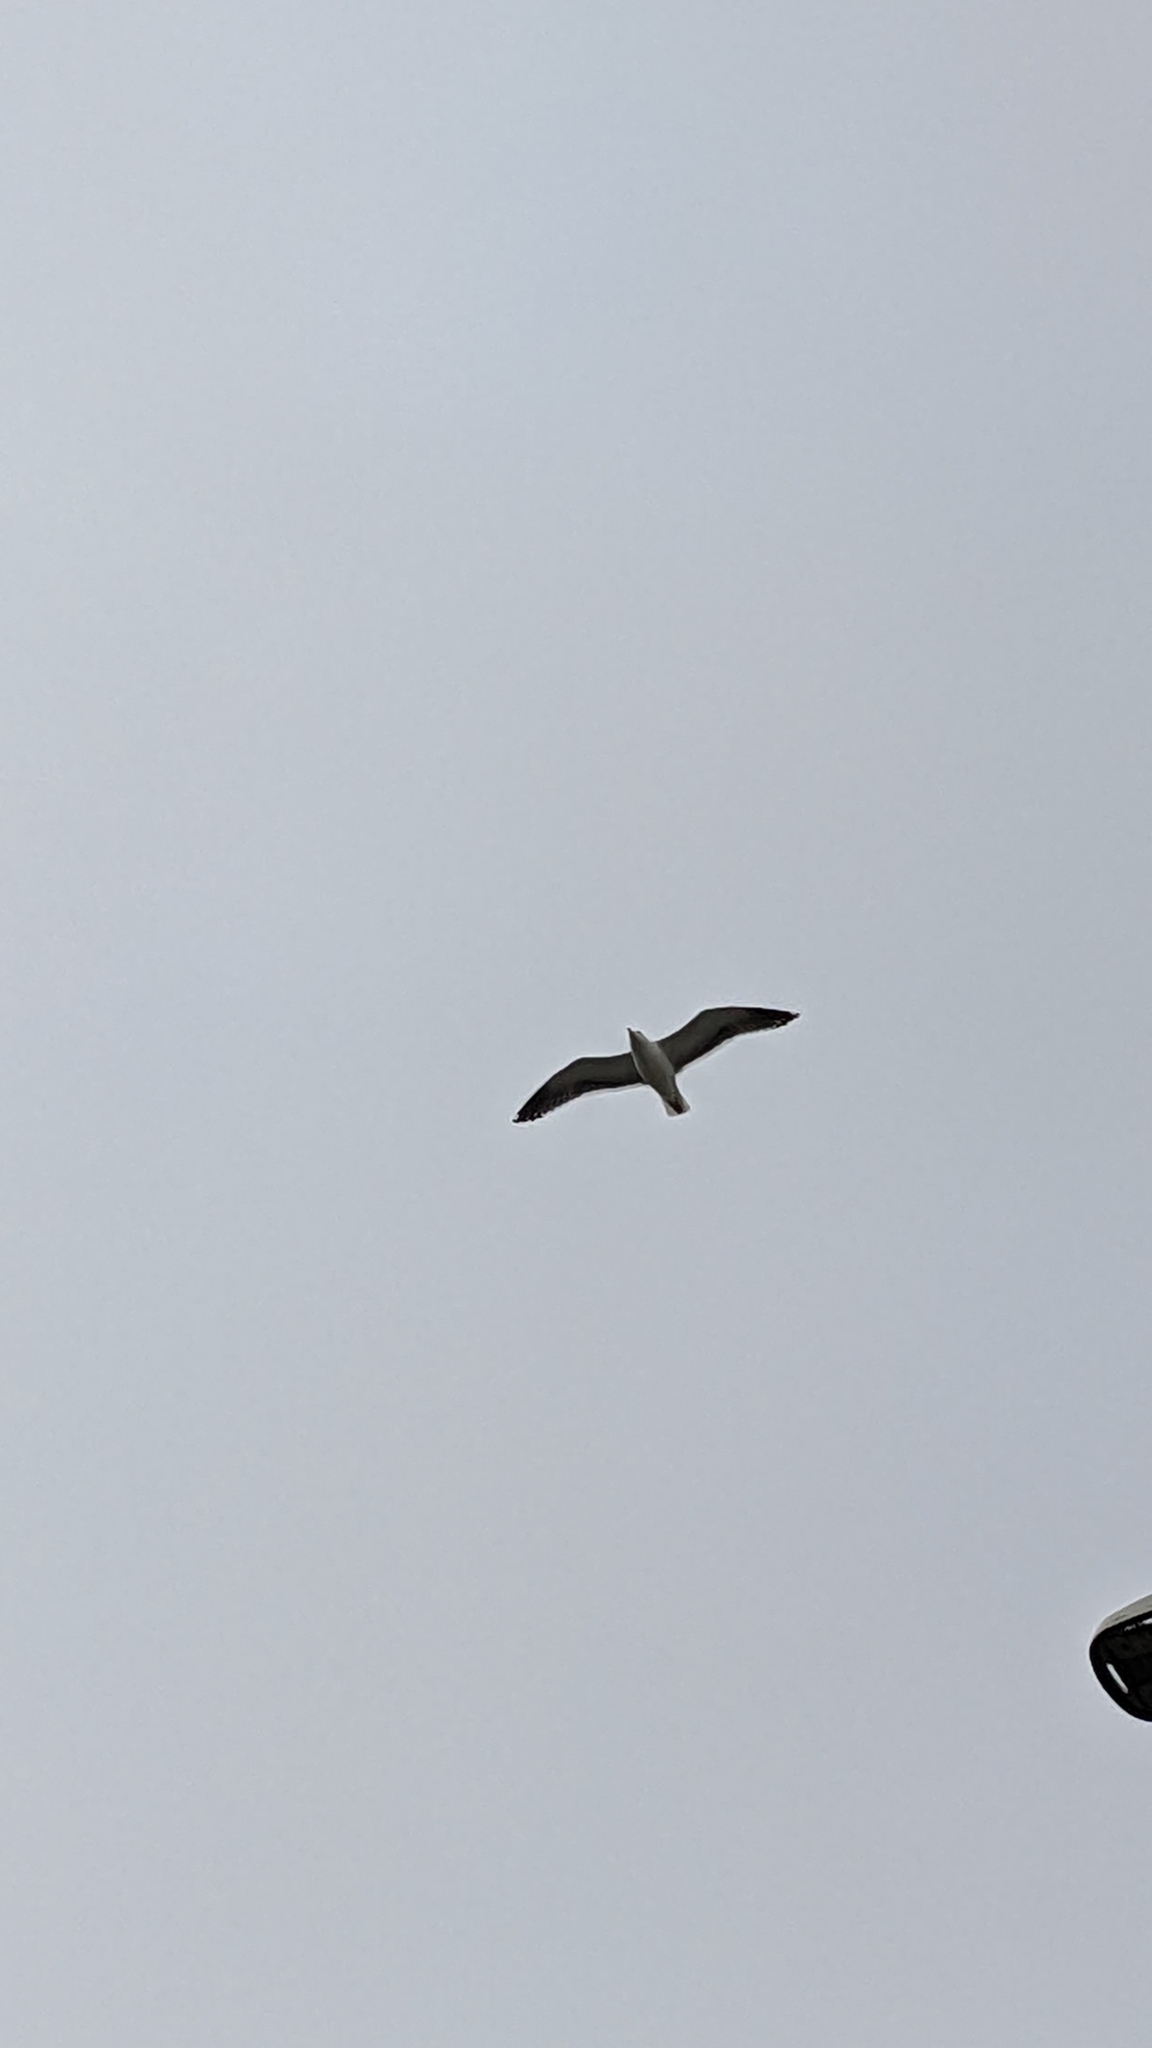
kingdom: Animalia
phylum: Chordata
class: Aves
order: Charadriiformes
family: Laridae
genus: Larus
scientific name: Larus
